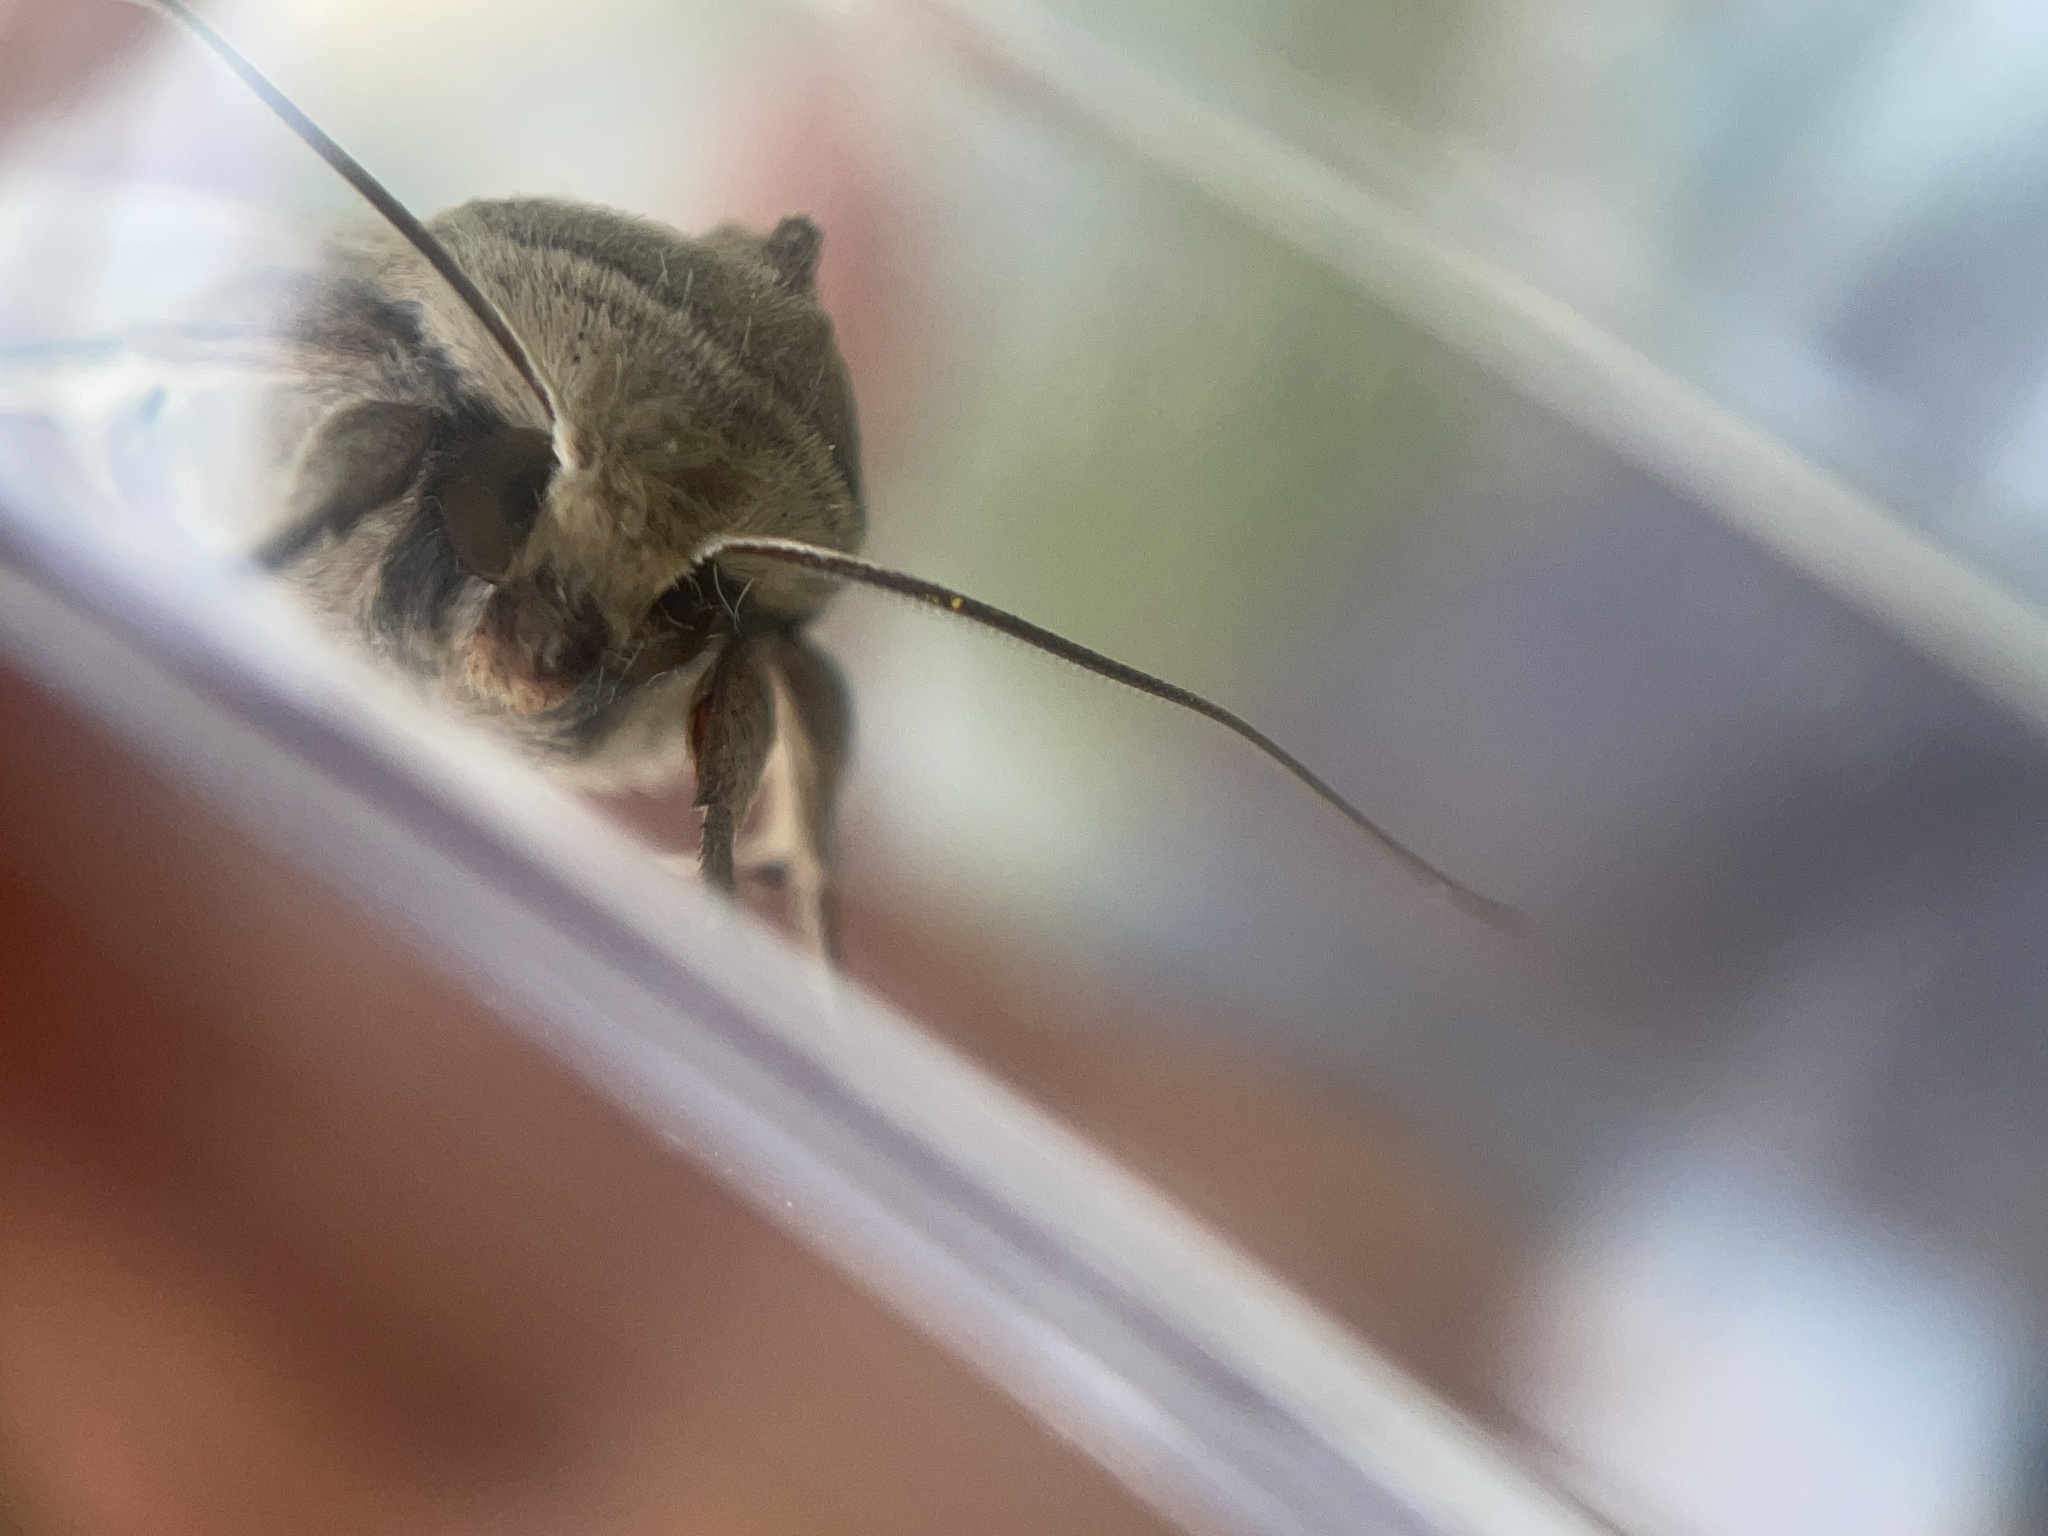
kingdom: Animalia
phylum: Arthropoda
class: Insecta
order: Lepidoptera
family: Noctuidae
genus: Mythimna
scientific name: Mythimna unipuncta
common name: White-speck
